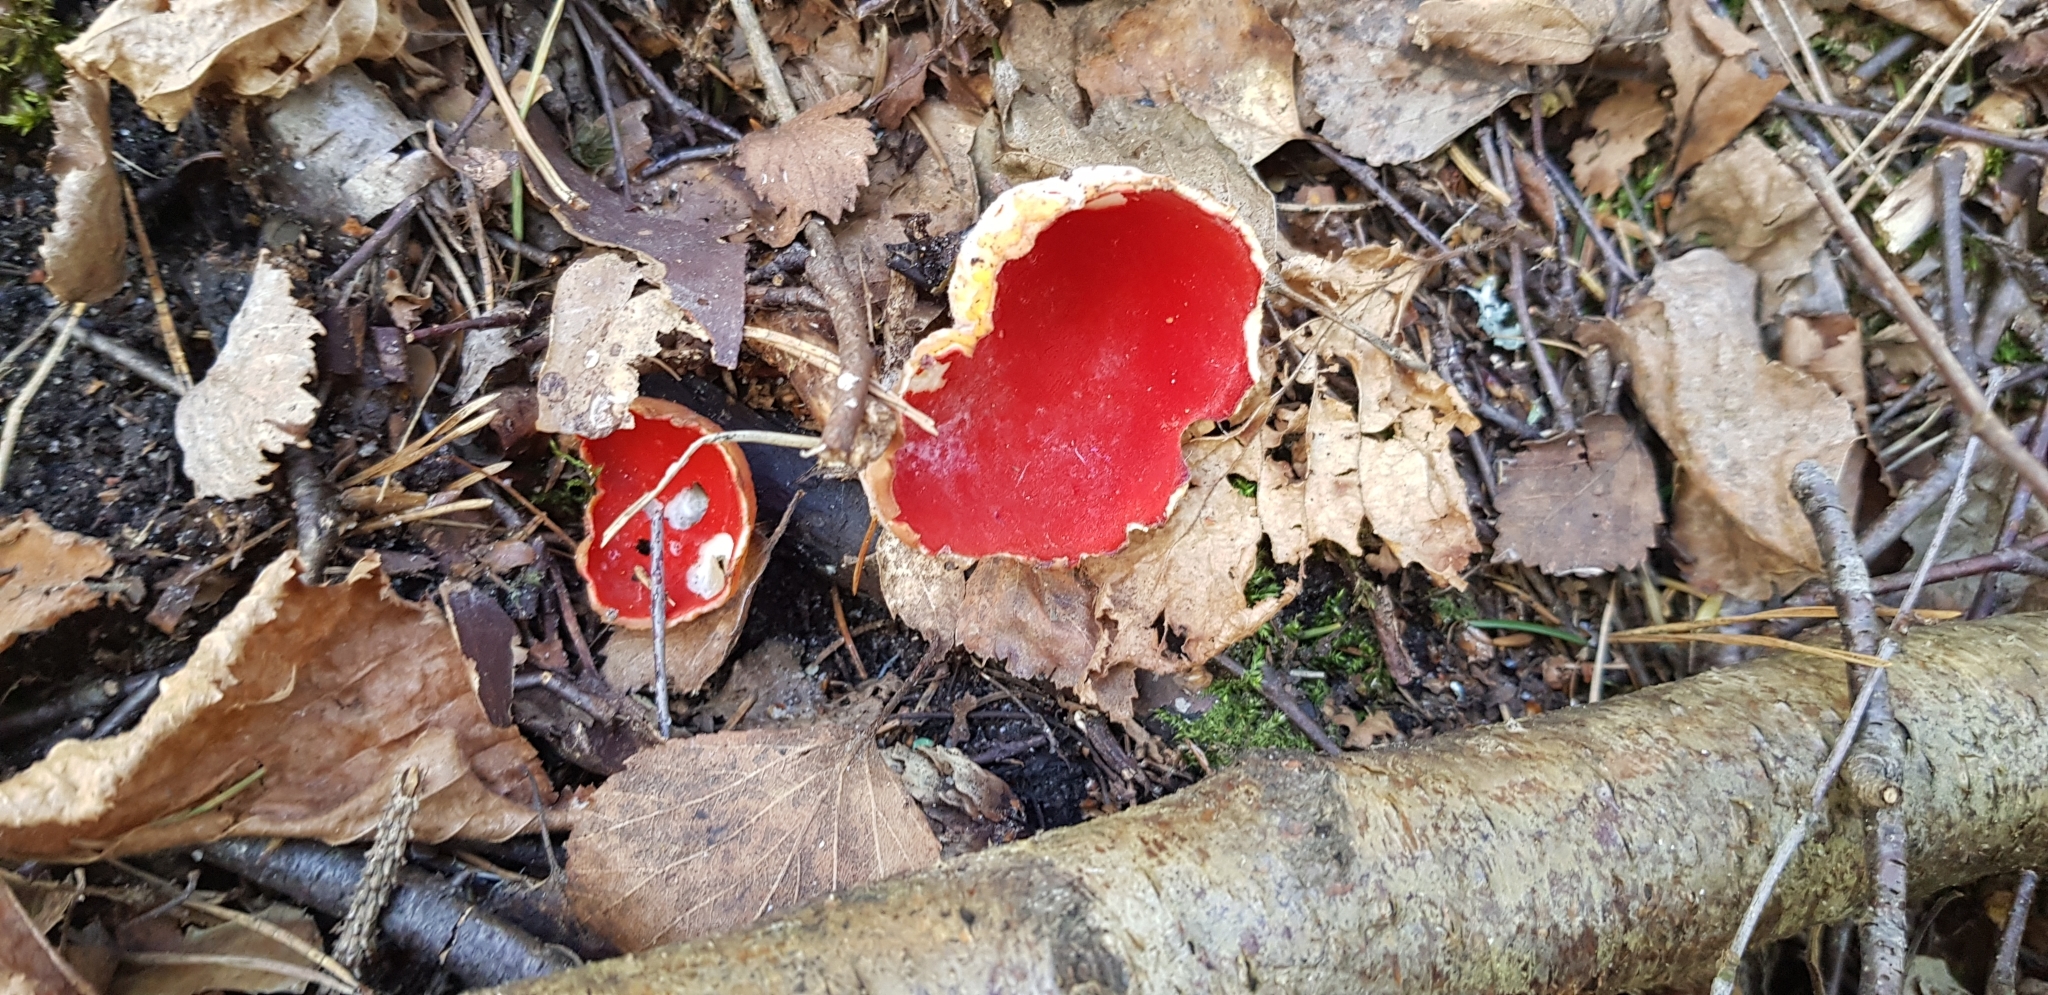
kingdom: Fungi
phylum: Ascomycota
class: Pezizomycetes
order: Pezizales
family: Sarcoscyphaceae
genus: Sarcoscypha
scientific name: Sarcoscypha
